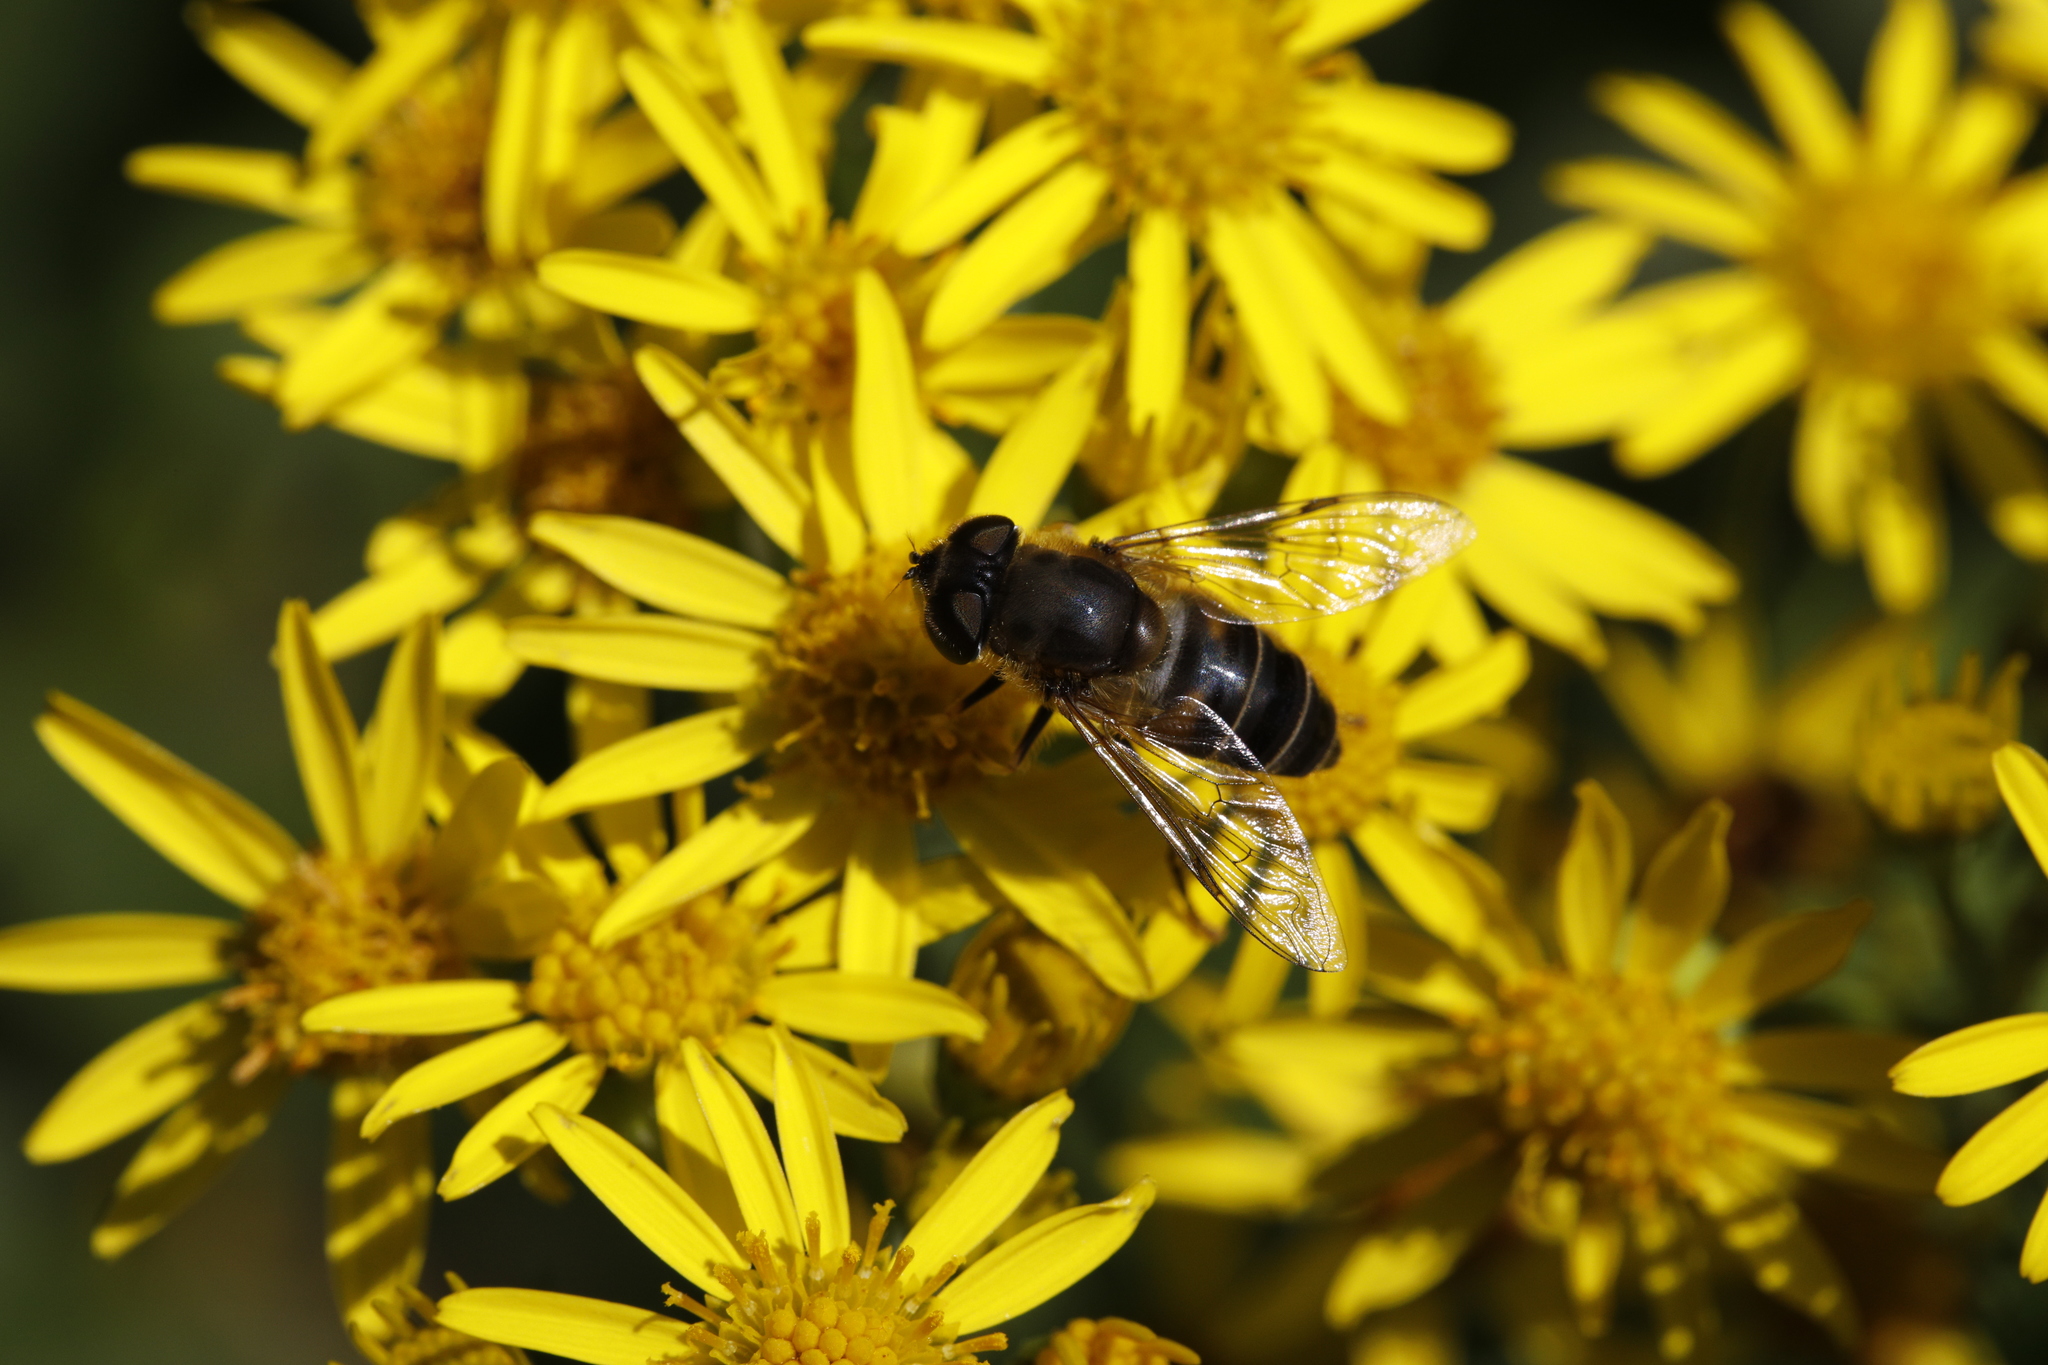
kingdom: Animalia
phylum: Arthropoda
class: Insecta
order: Diptera
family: Syrphidae
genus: Eristalis
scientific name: Eristalis pertinax
